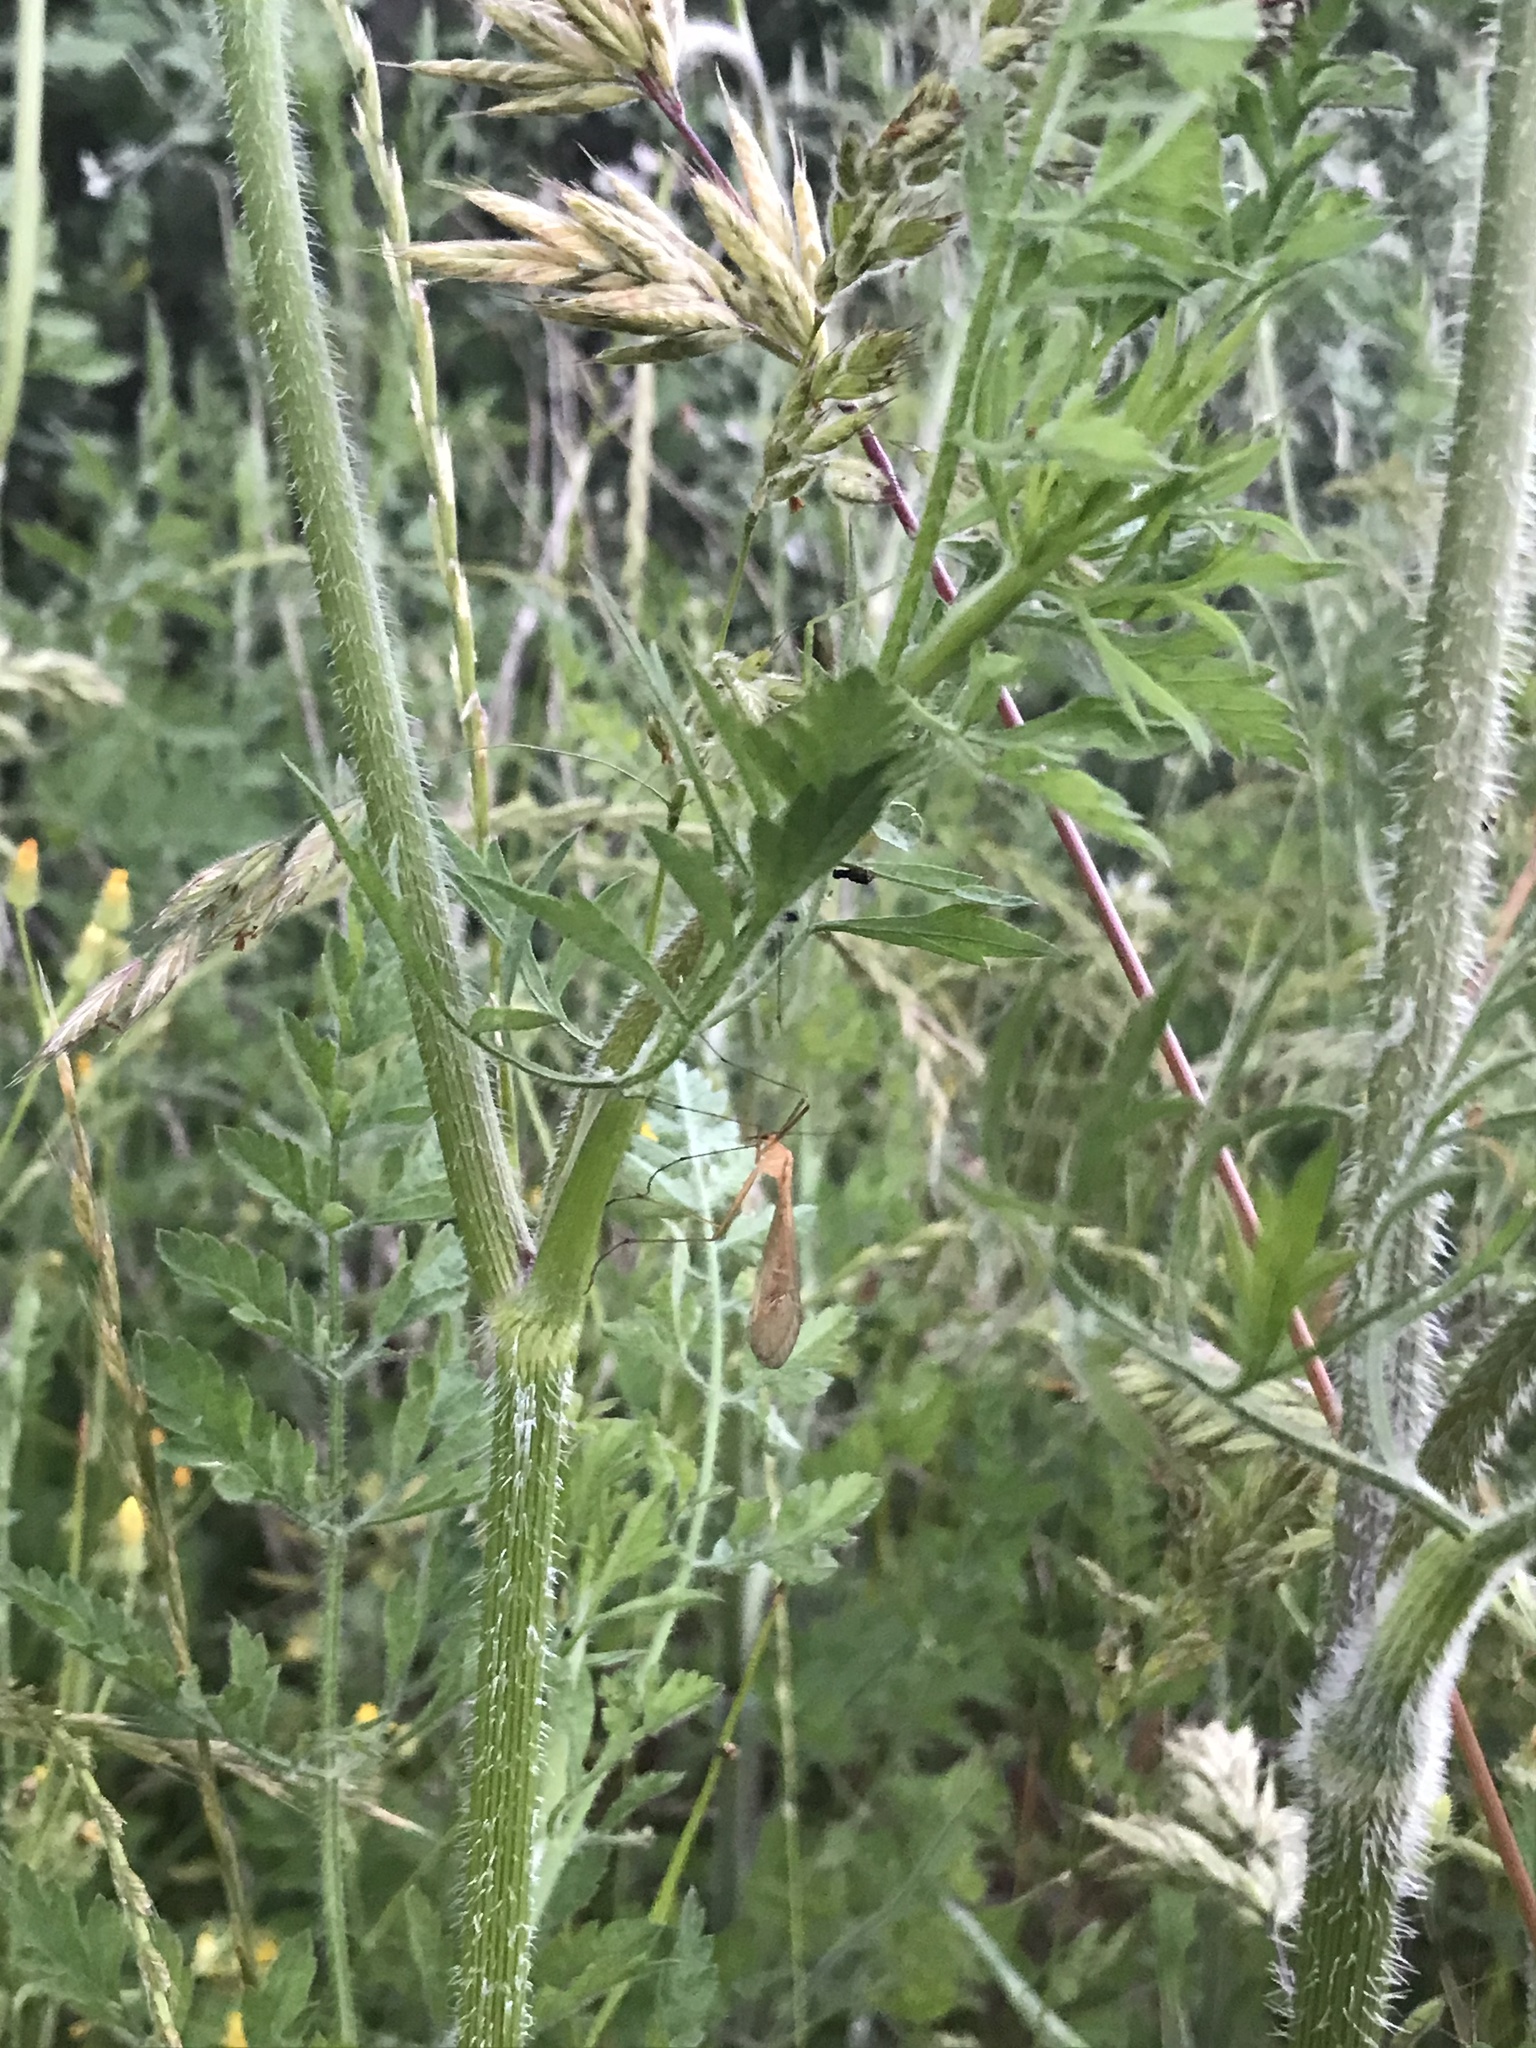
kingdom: Animalia
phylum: Arthropoda
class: Insecta
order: Mecoptera
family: Bittacidae
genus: Bittacus
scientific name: Bittacus italicus
